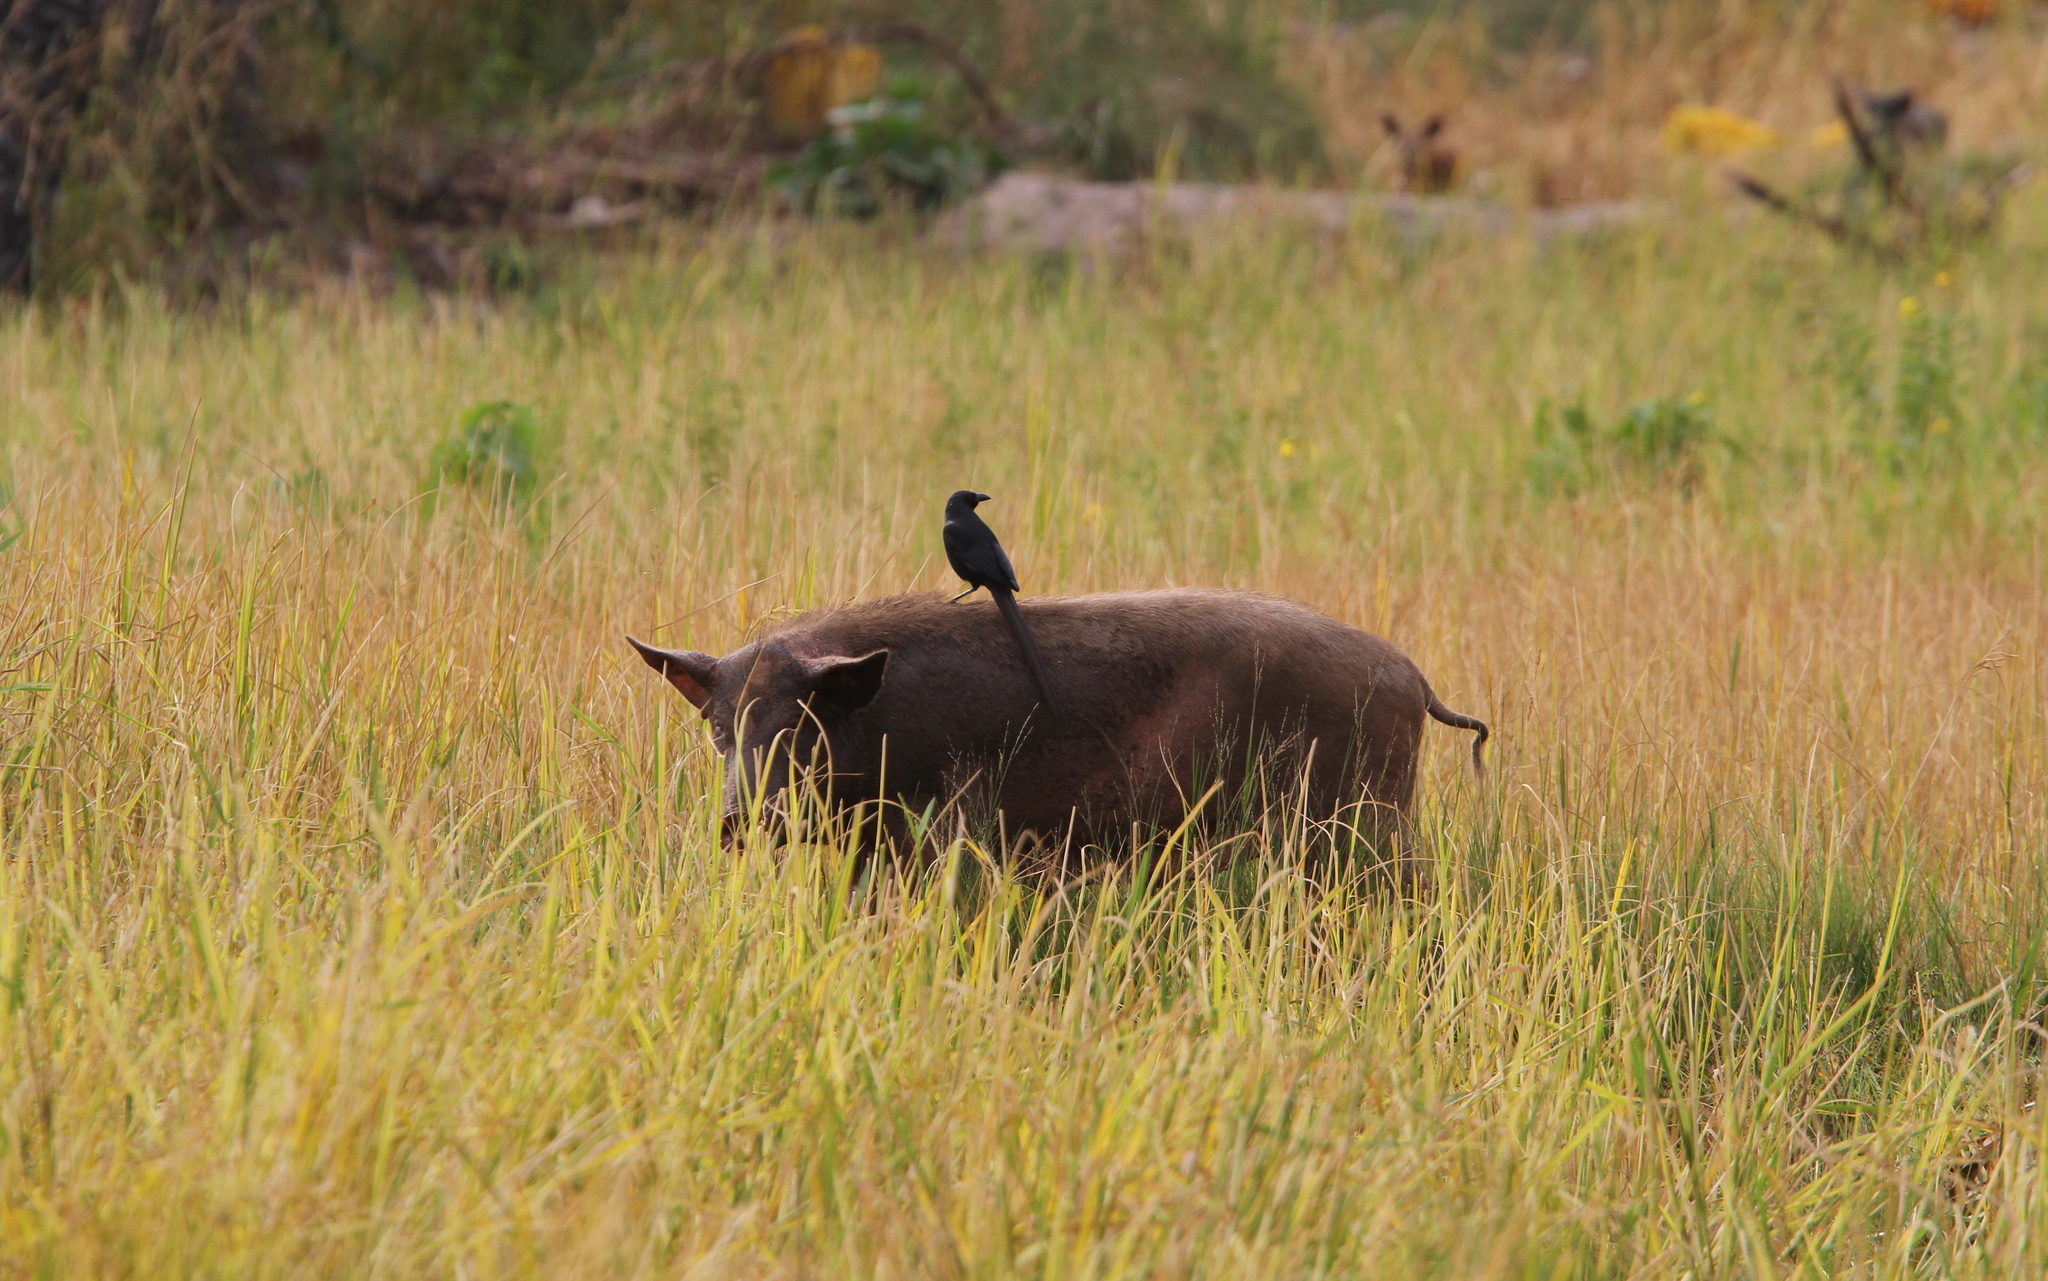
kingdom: Animalia
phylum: Chordata
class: Aves
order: Passeriformes
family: Corvidae
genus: Ptilostomus
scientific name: Ptilostomus afer
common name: Piapiac
